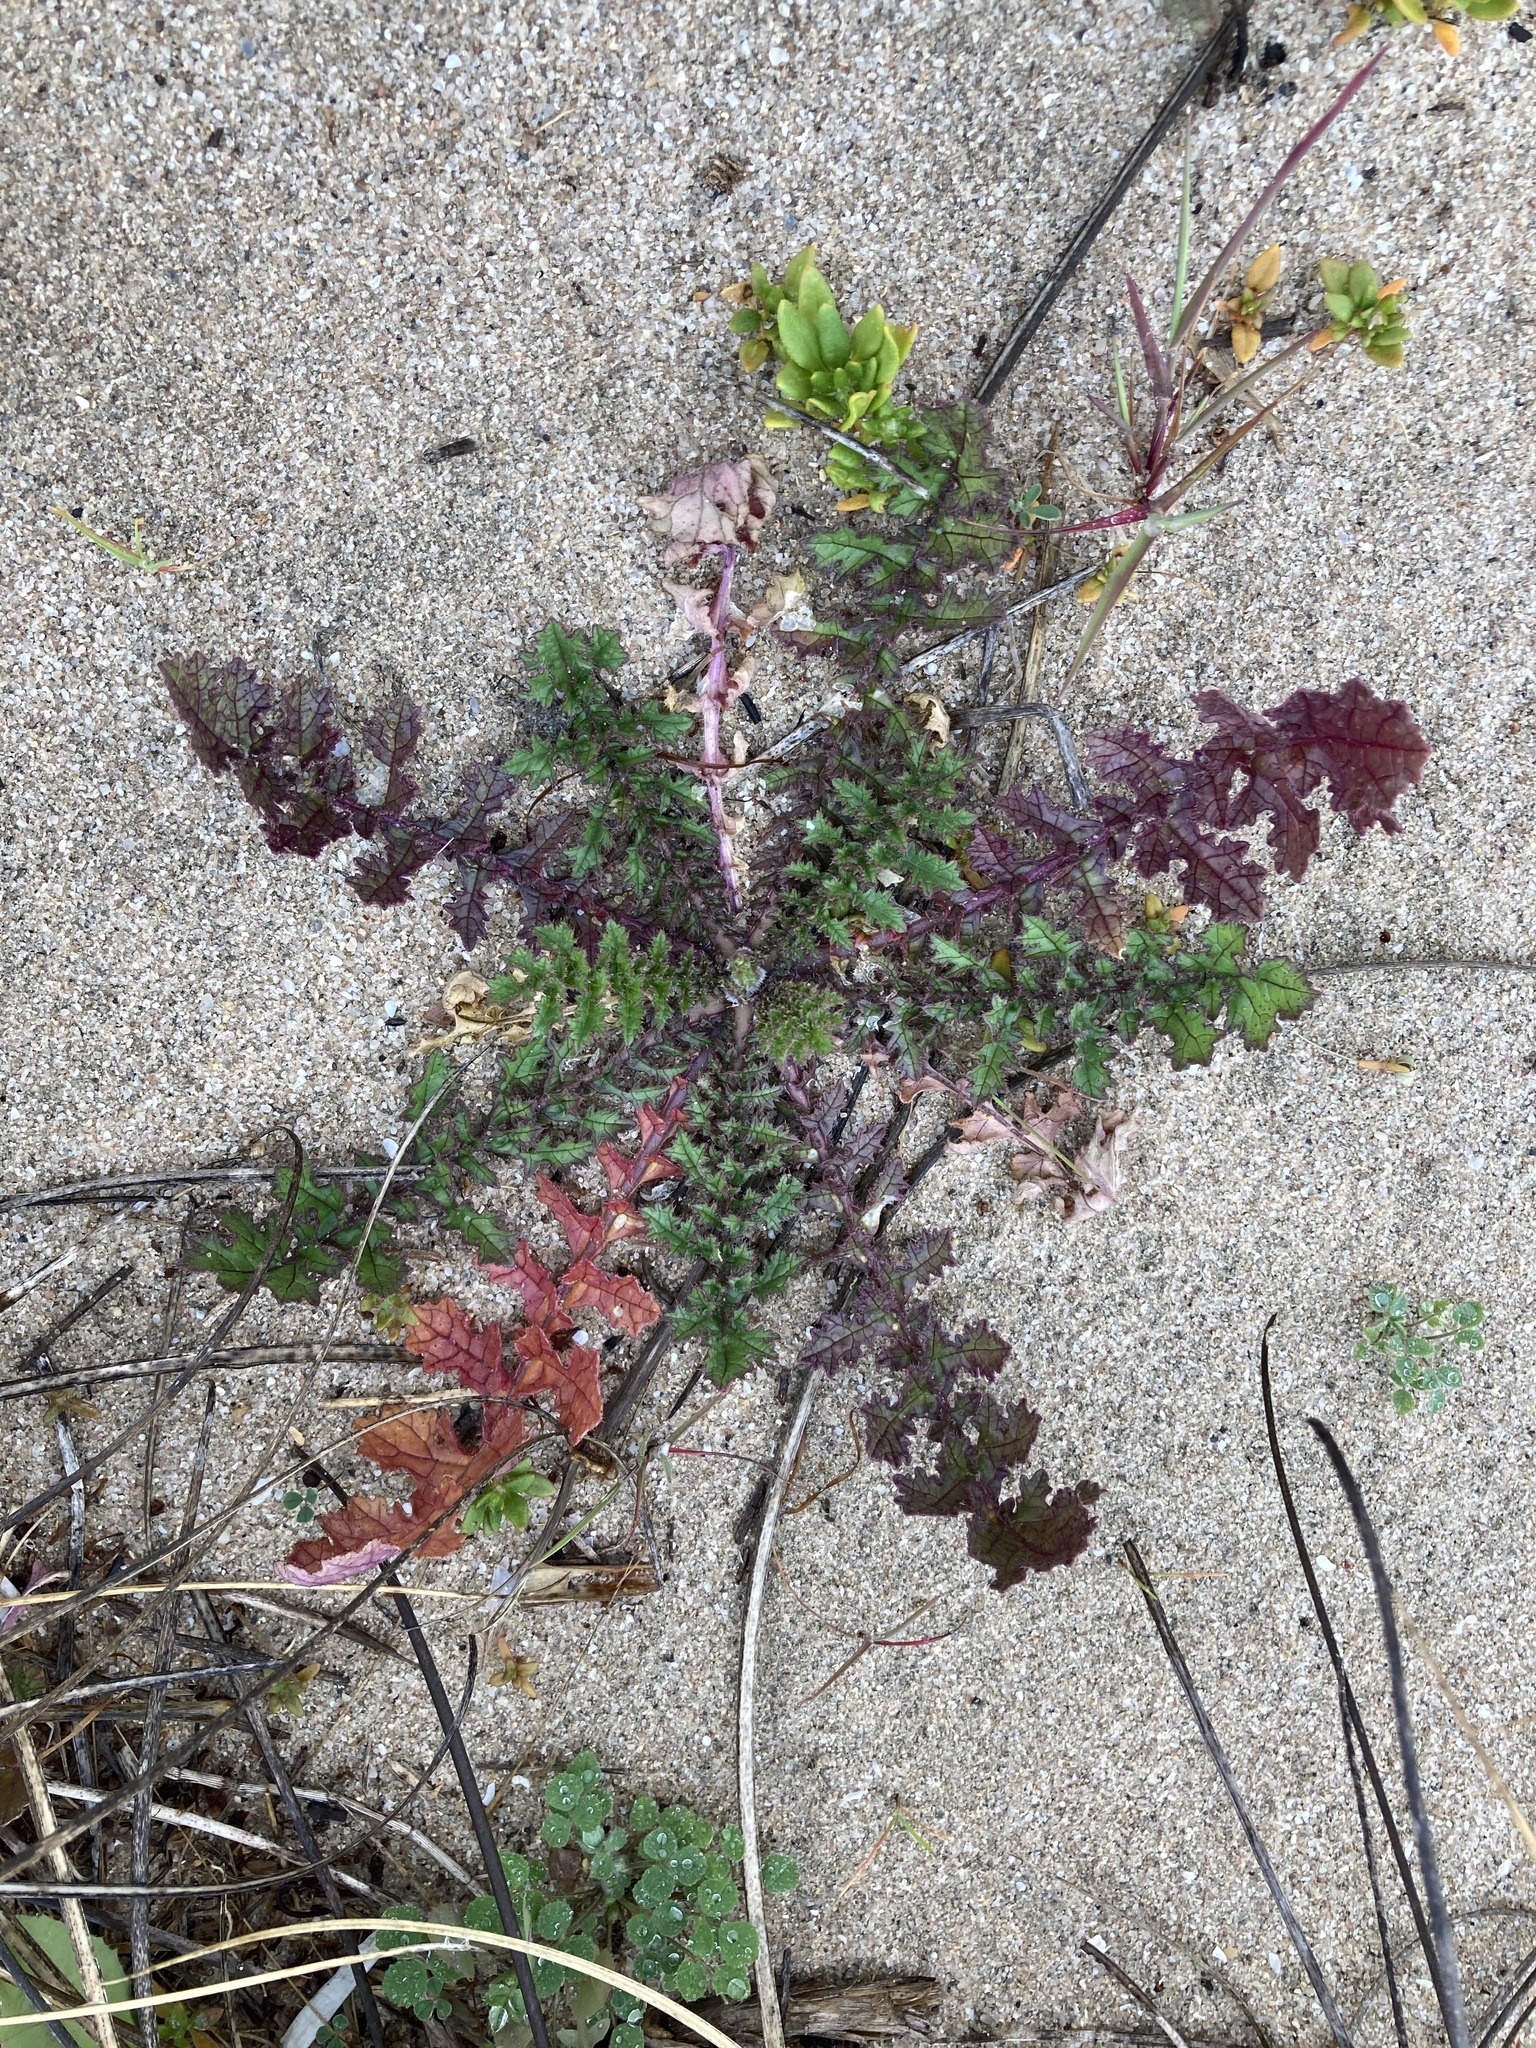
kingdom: Plantae
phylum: Tracheophyta
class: Magnoliopsida
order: Brassicales
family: Brassicaceae
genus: Brassica
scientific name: Brassica tournefortii
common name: Pale cabbage
